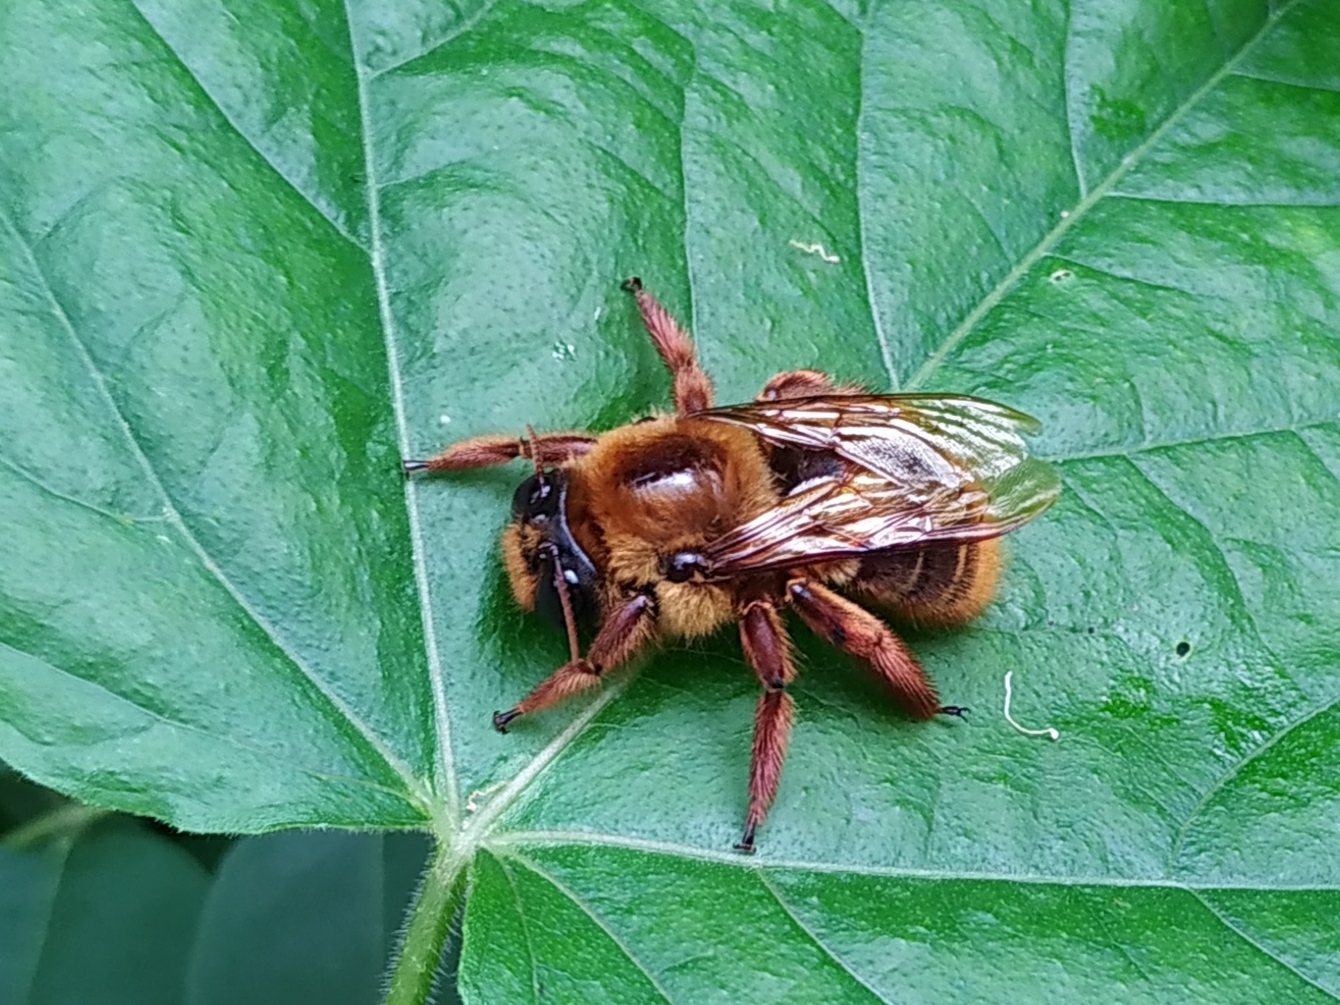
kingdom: Animalia
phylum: Arthropoda
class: Insecta
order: Hymenoptera
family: Apidae
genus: Xylocopa
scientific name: Xylocopa tranquebarica
